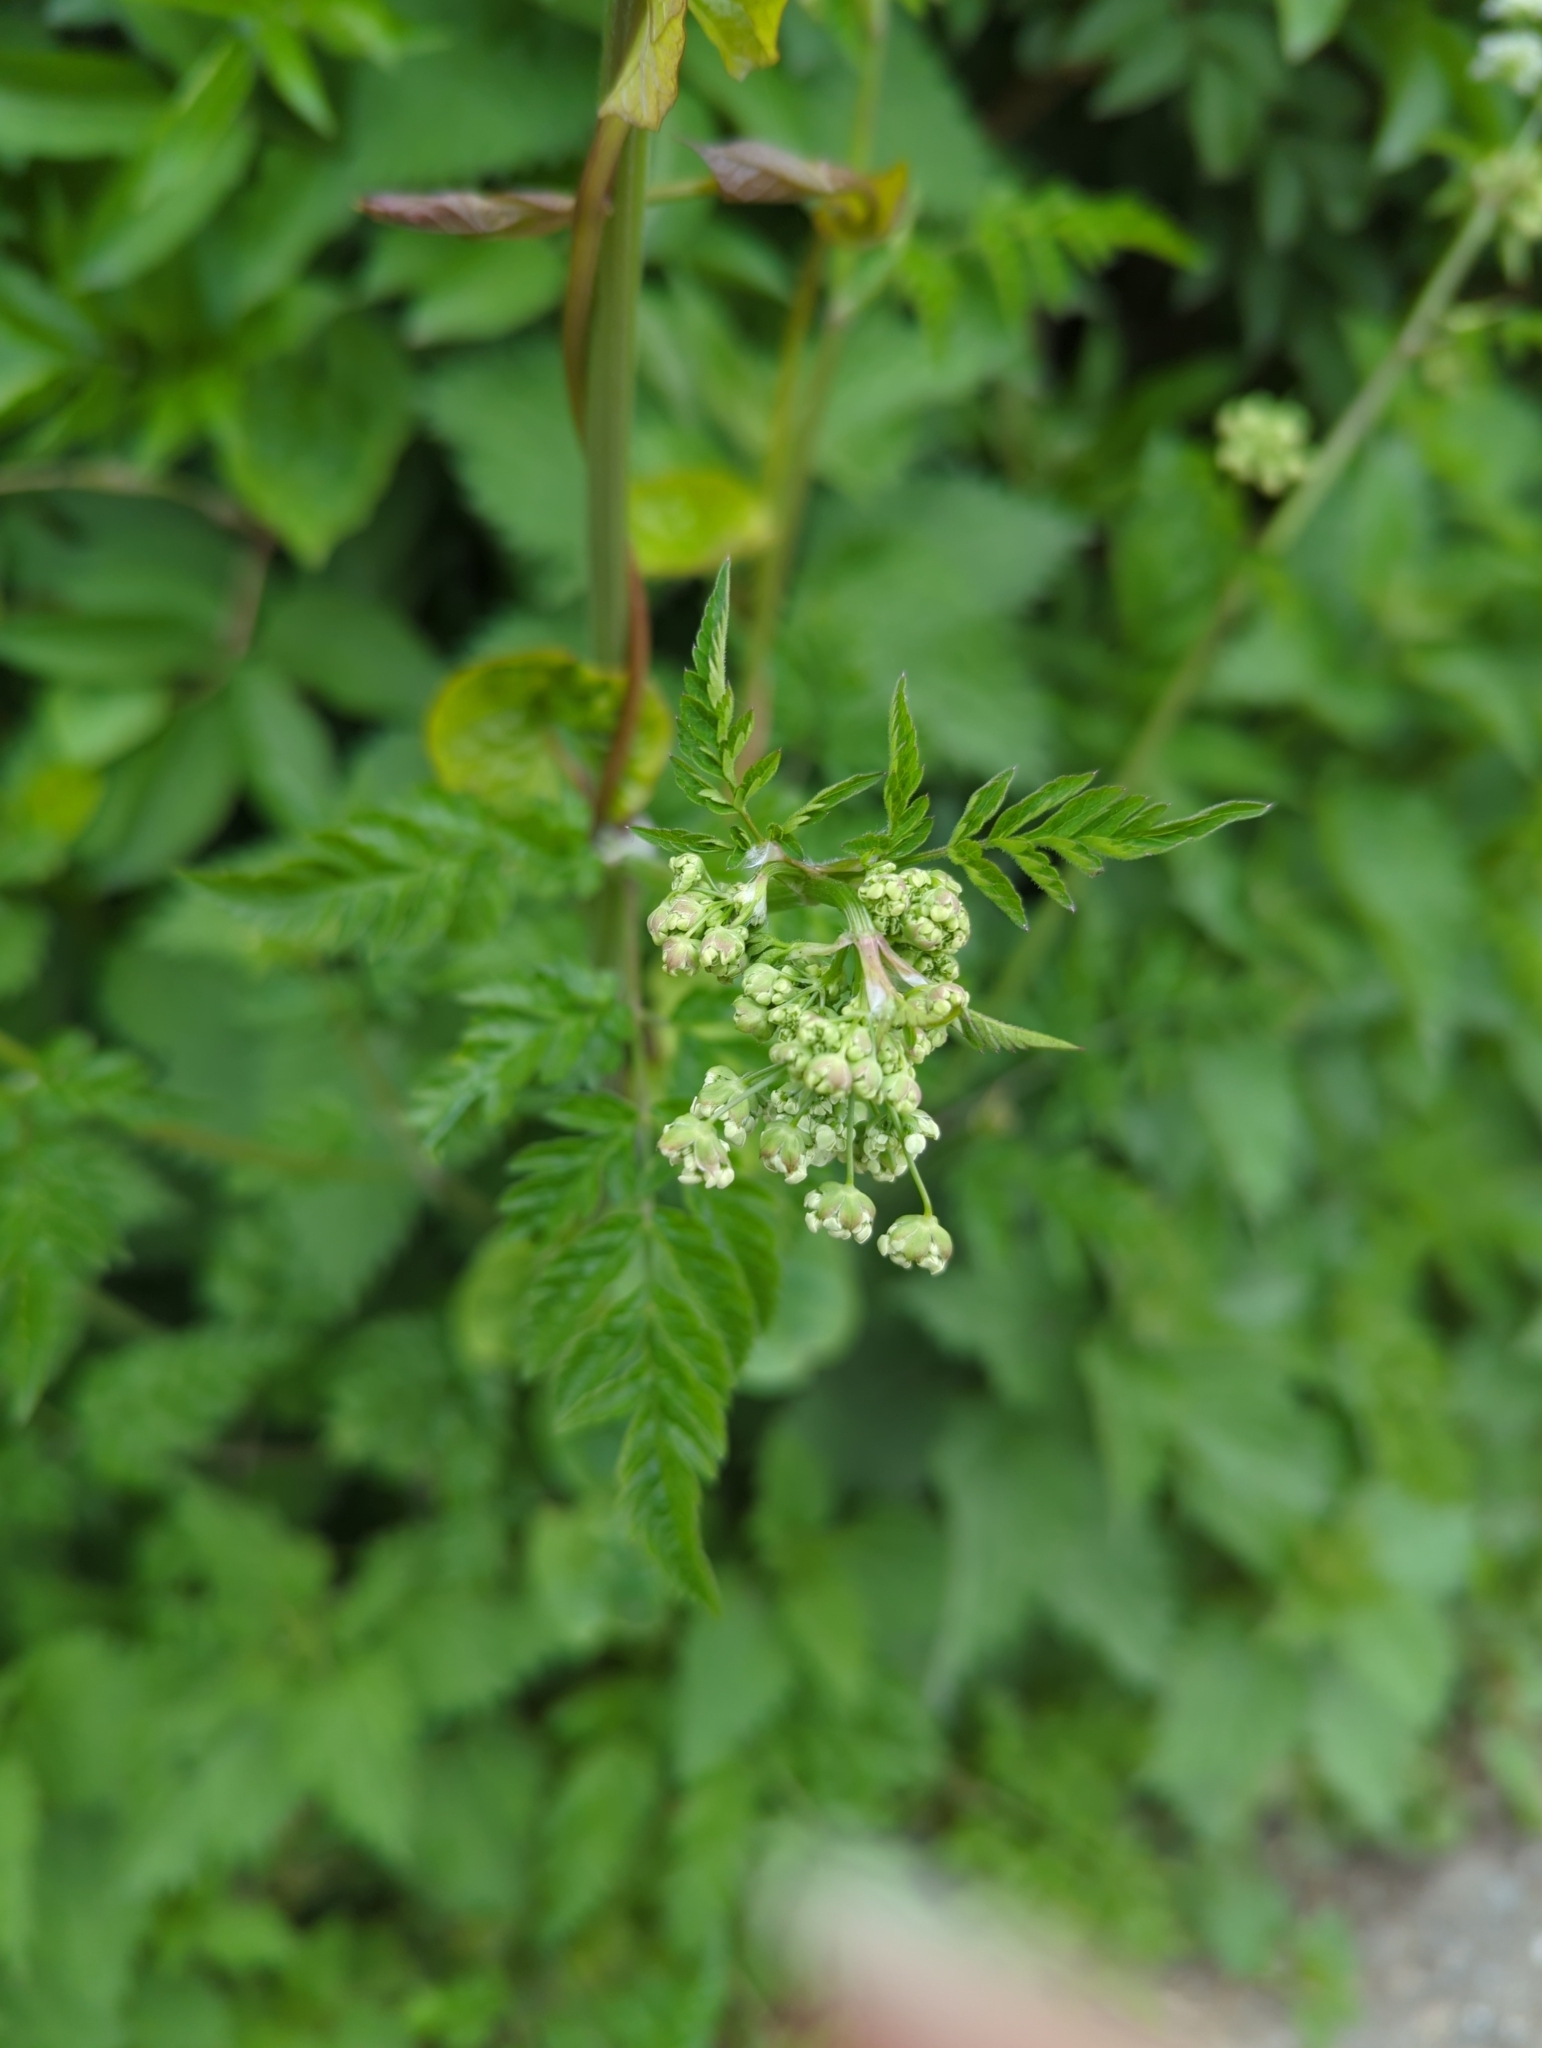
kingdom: Plantae
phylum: Tracheophyta
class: Magnoliopsida
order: Apiales
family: Apiaceae
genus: Anthriscus
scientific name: Anthriscus sylvestris
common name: Cow parsley
